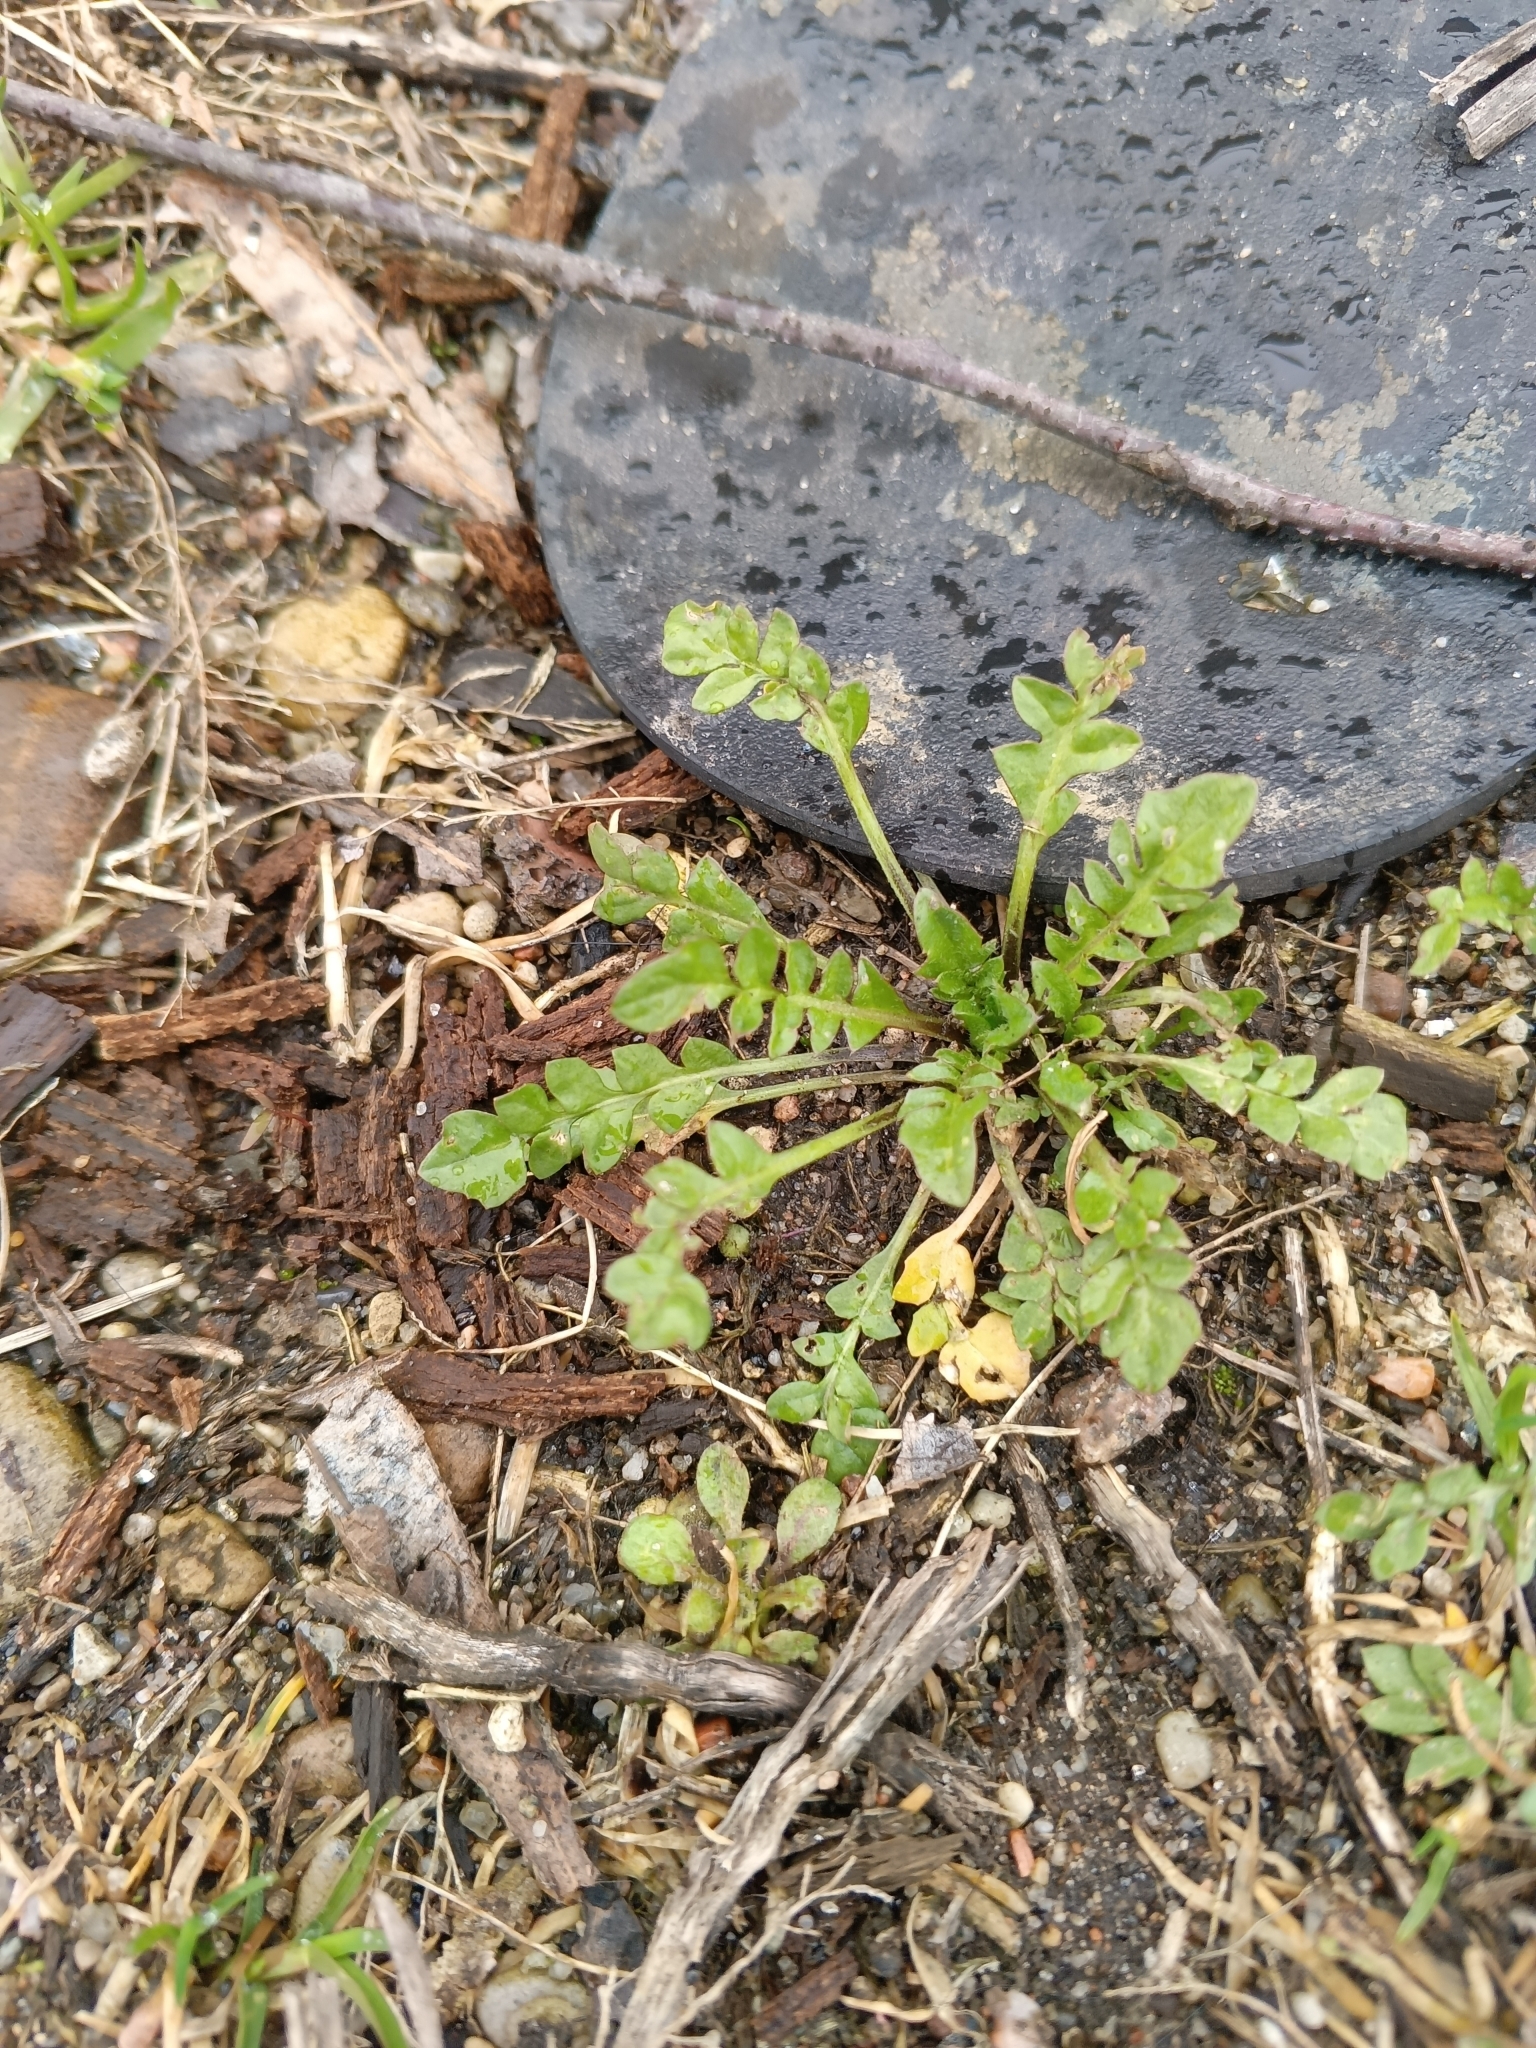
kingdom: Plantae
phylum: Tracheophyta
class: Magnoliopsida
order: Brassicales
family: Brassicaceae
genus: Capsella
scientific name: Capsella bursa-pastoris
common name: Shepherd's purse
